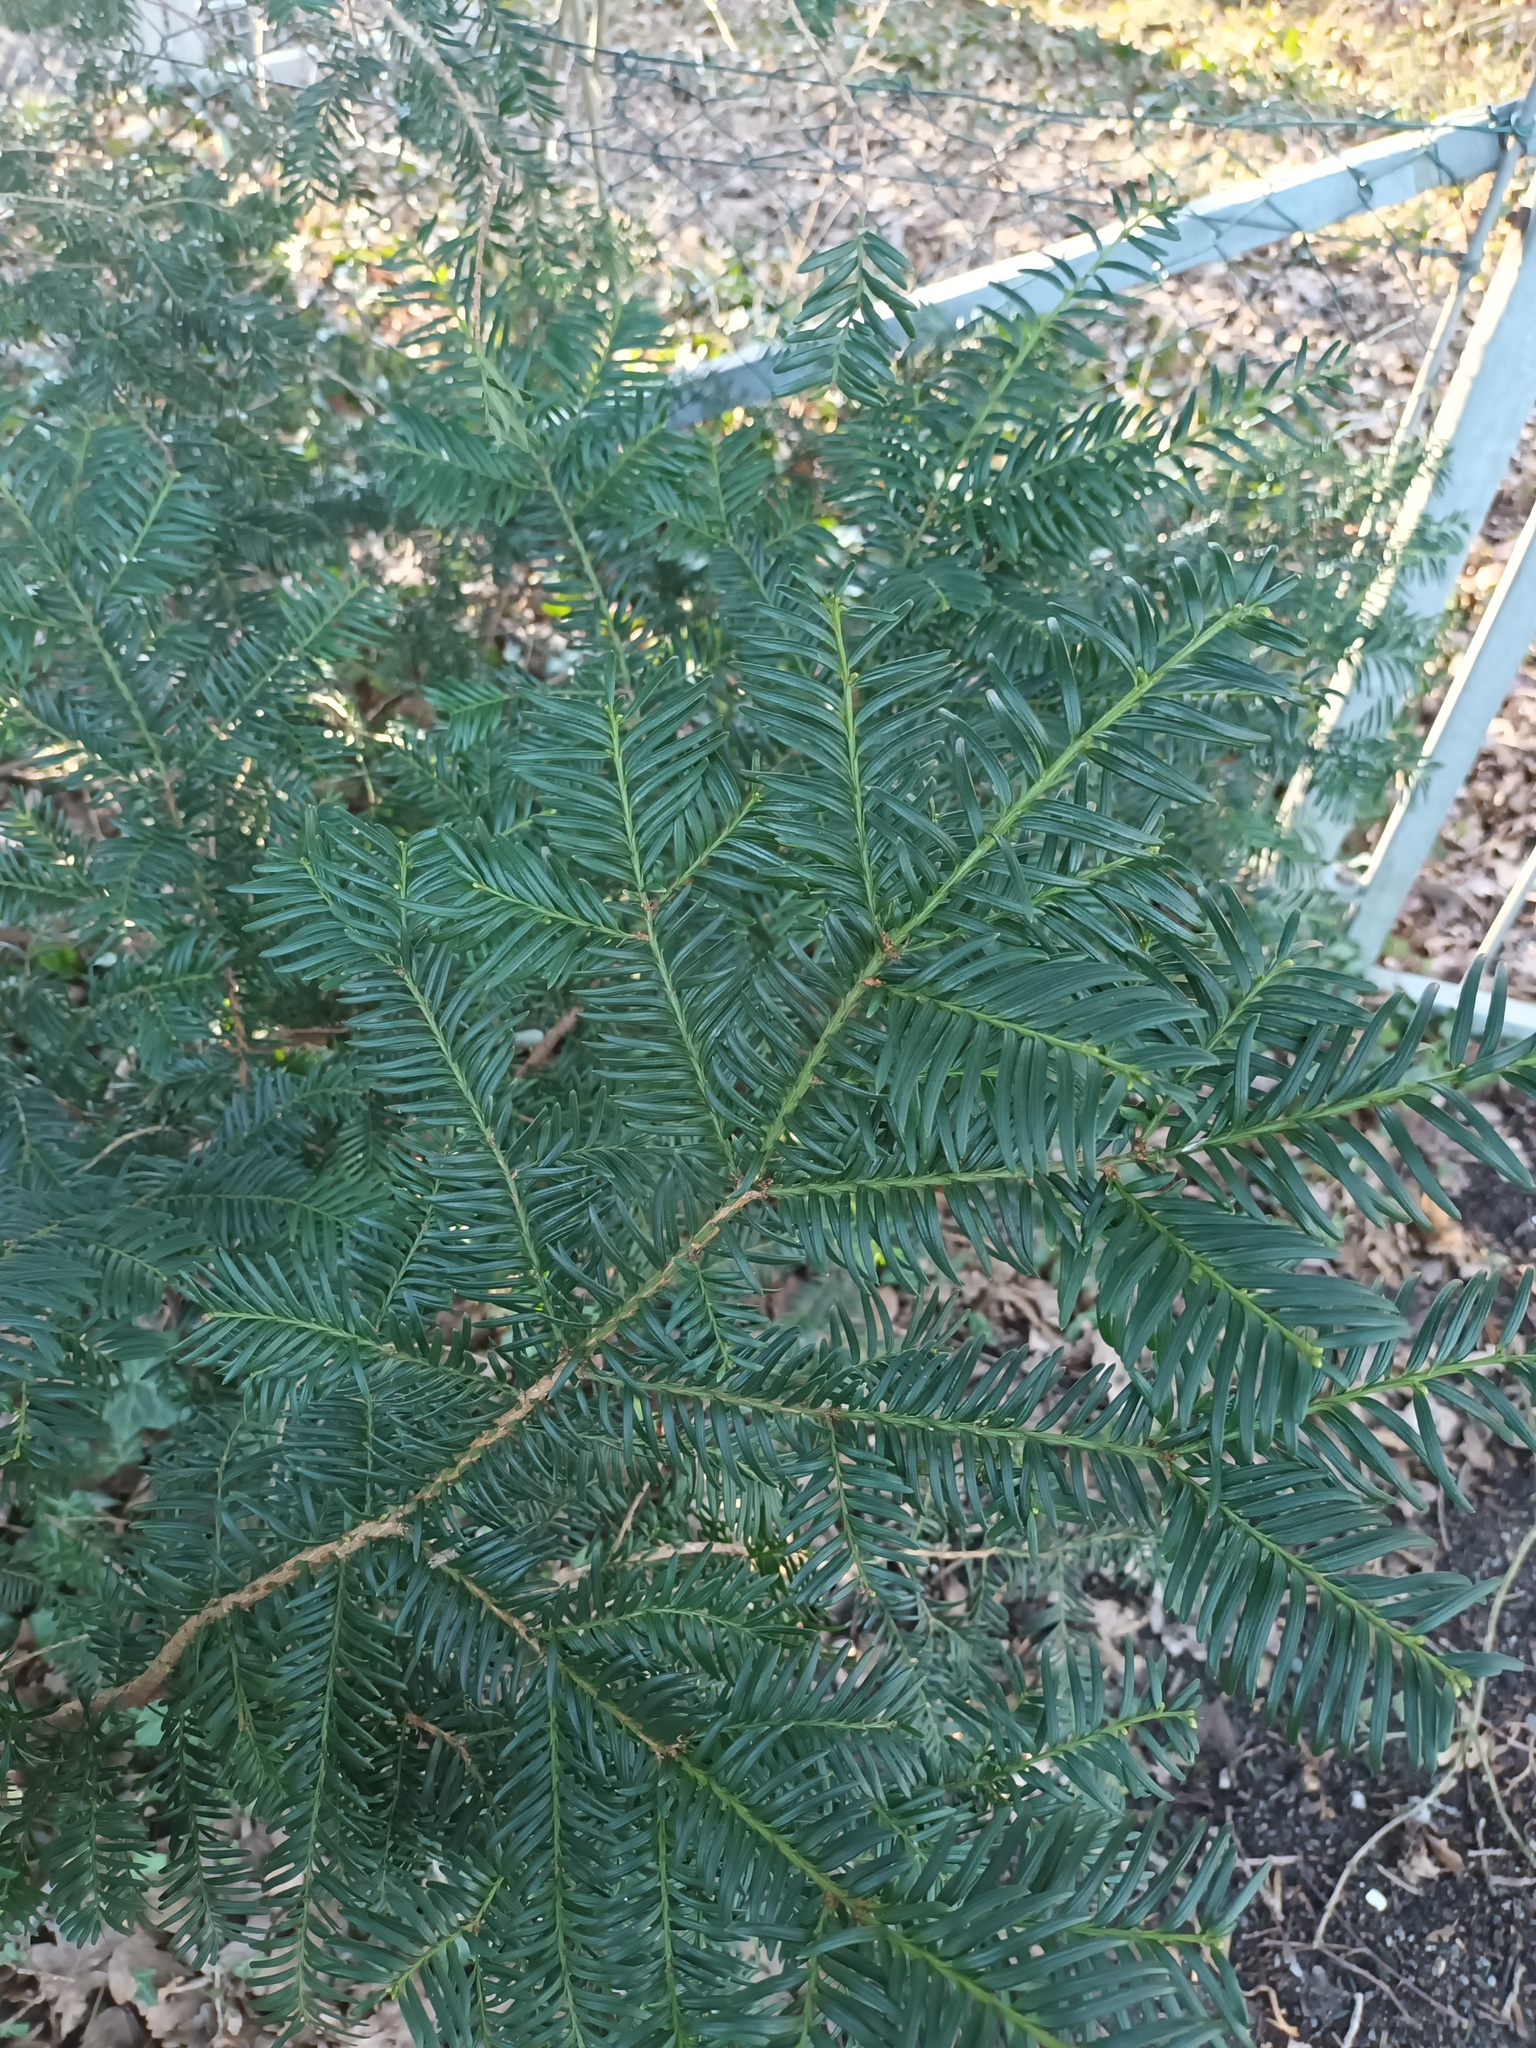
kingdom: Plantae
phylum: Tracheophyta
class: Pinopsida
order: Pinales
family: Taxaceae
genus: Taxus
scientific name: Taxus baccata
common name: Yew
